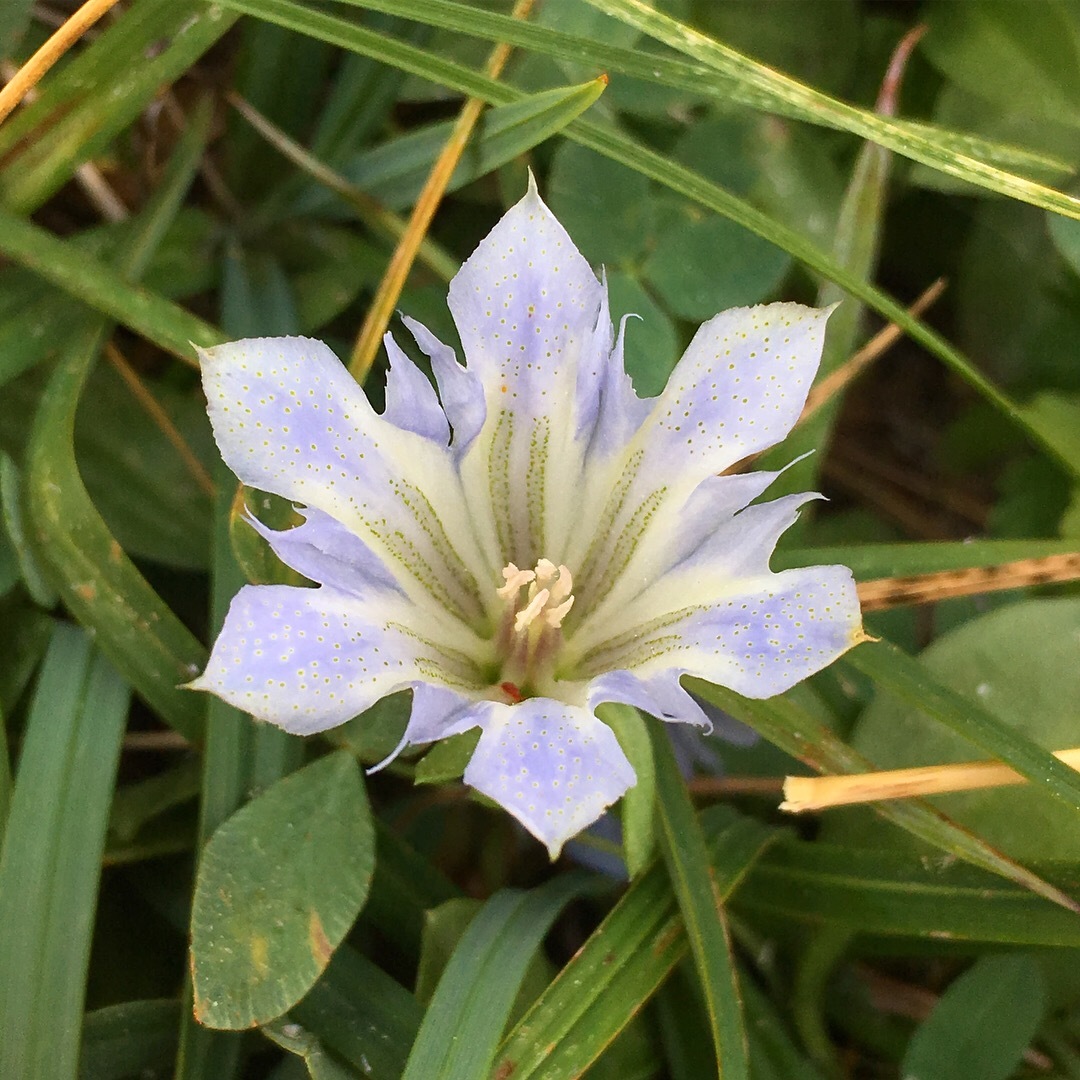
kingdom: Plantae
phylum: Tracheophyta
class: Magnoliopsida
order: Gentianales
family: Gentianaceae
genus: Gentiana
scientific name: Gentiana newberryi
